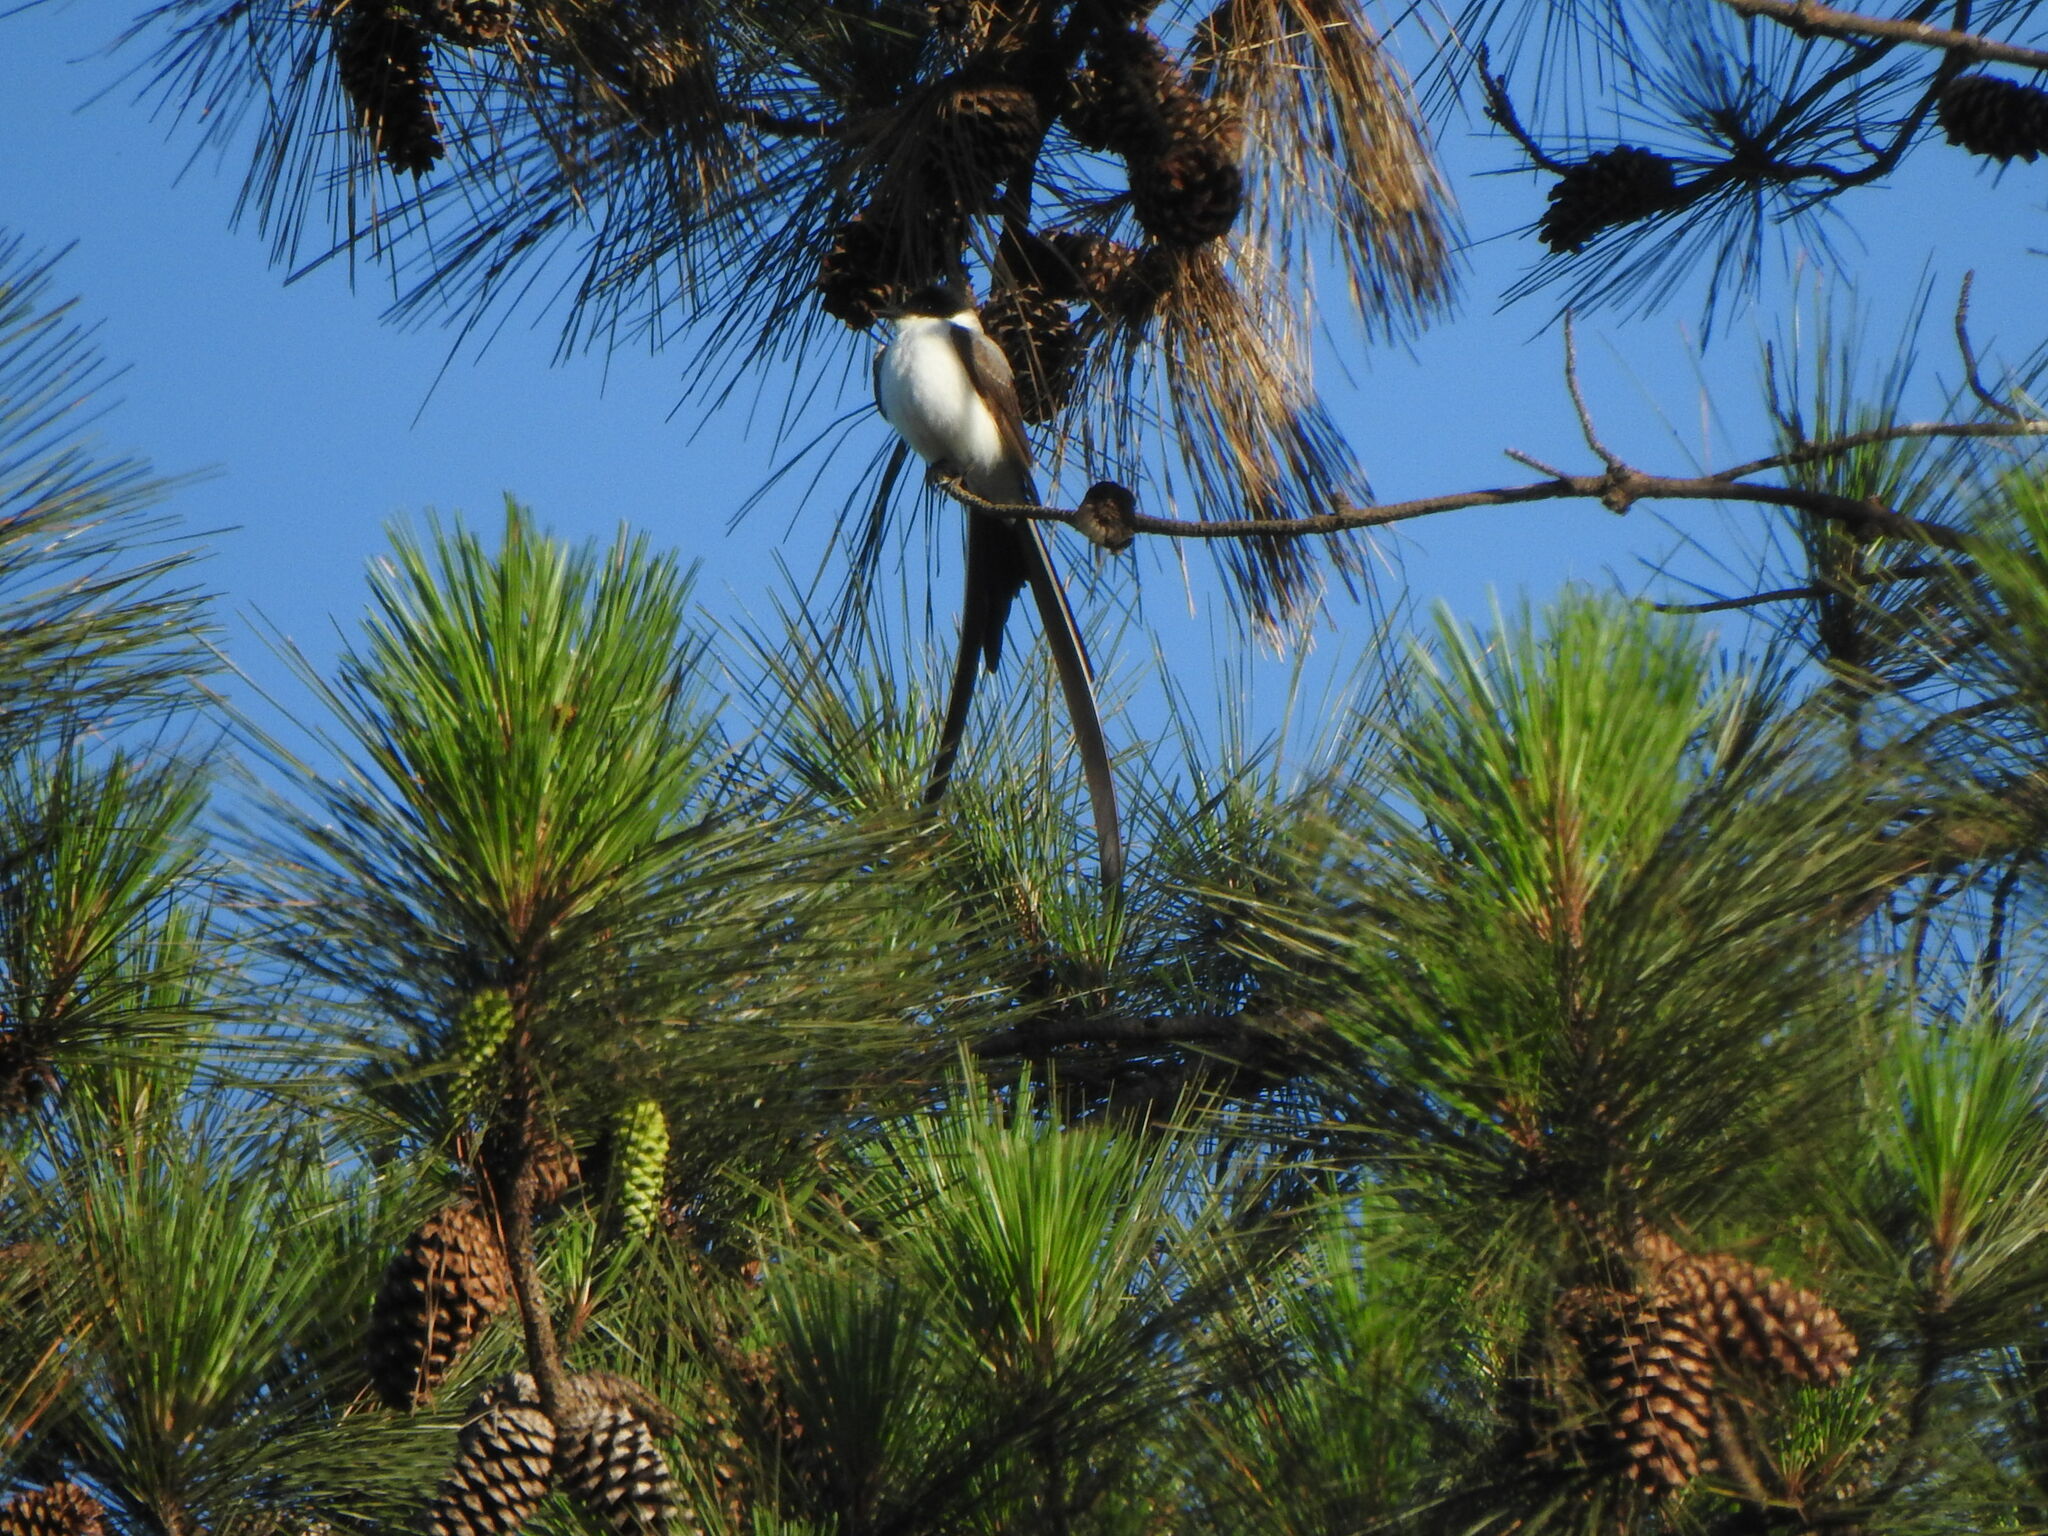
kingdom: Animalia
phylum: Chordata
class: Aves
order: Passeriformes
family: Tyrannidae
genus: Tyrannus
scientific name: Tyrannus savana
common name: Fork-tailed flycatcher
